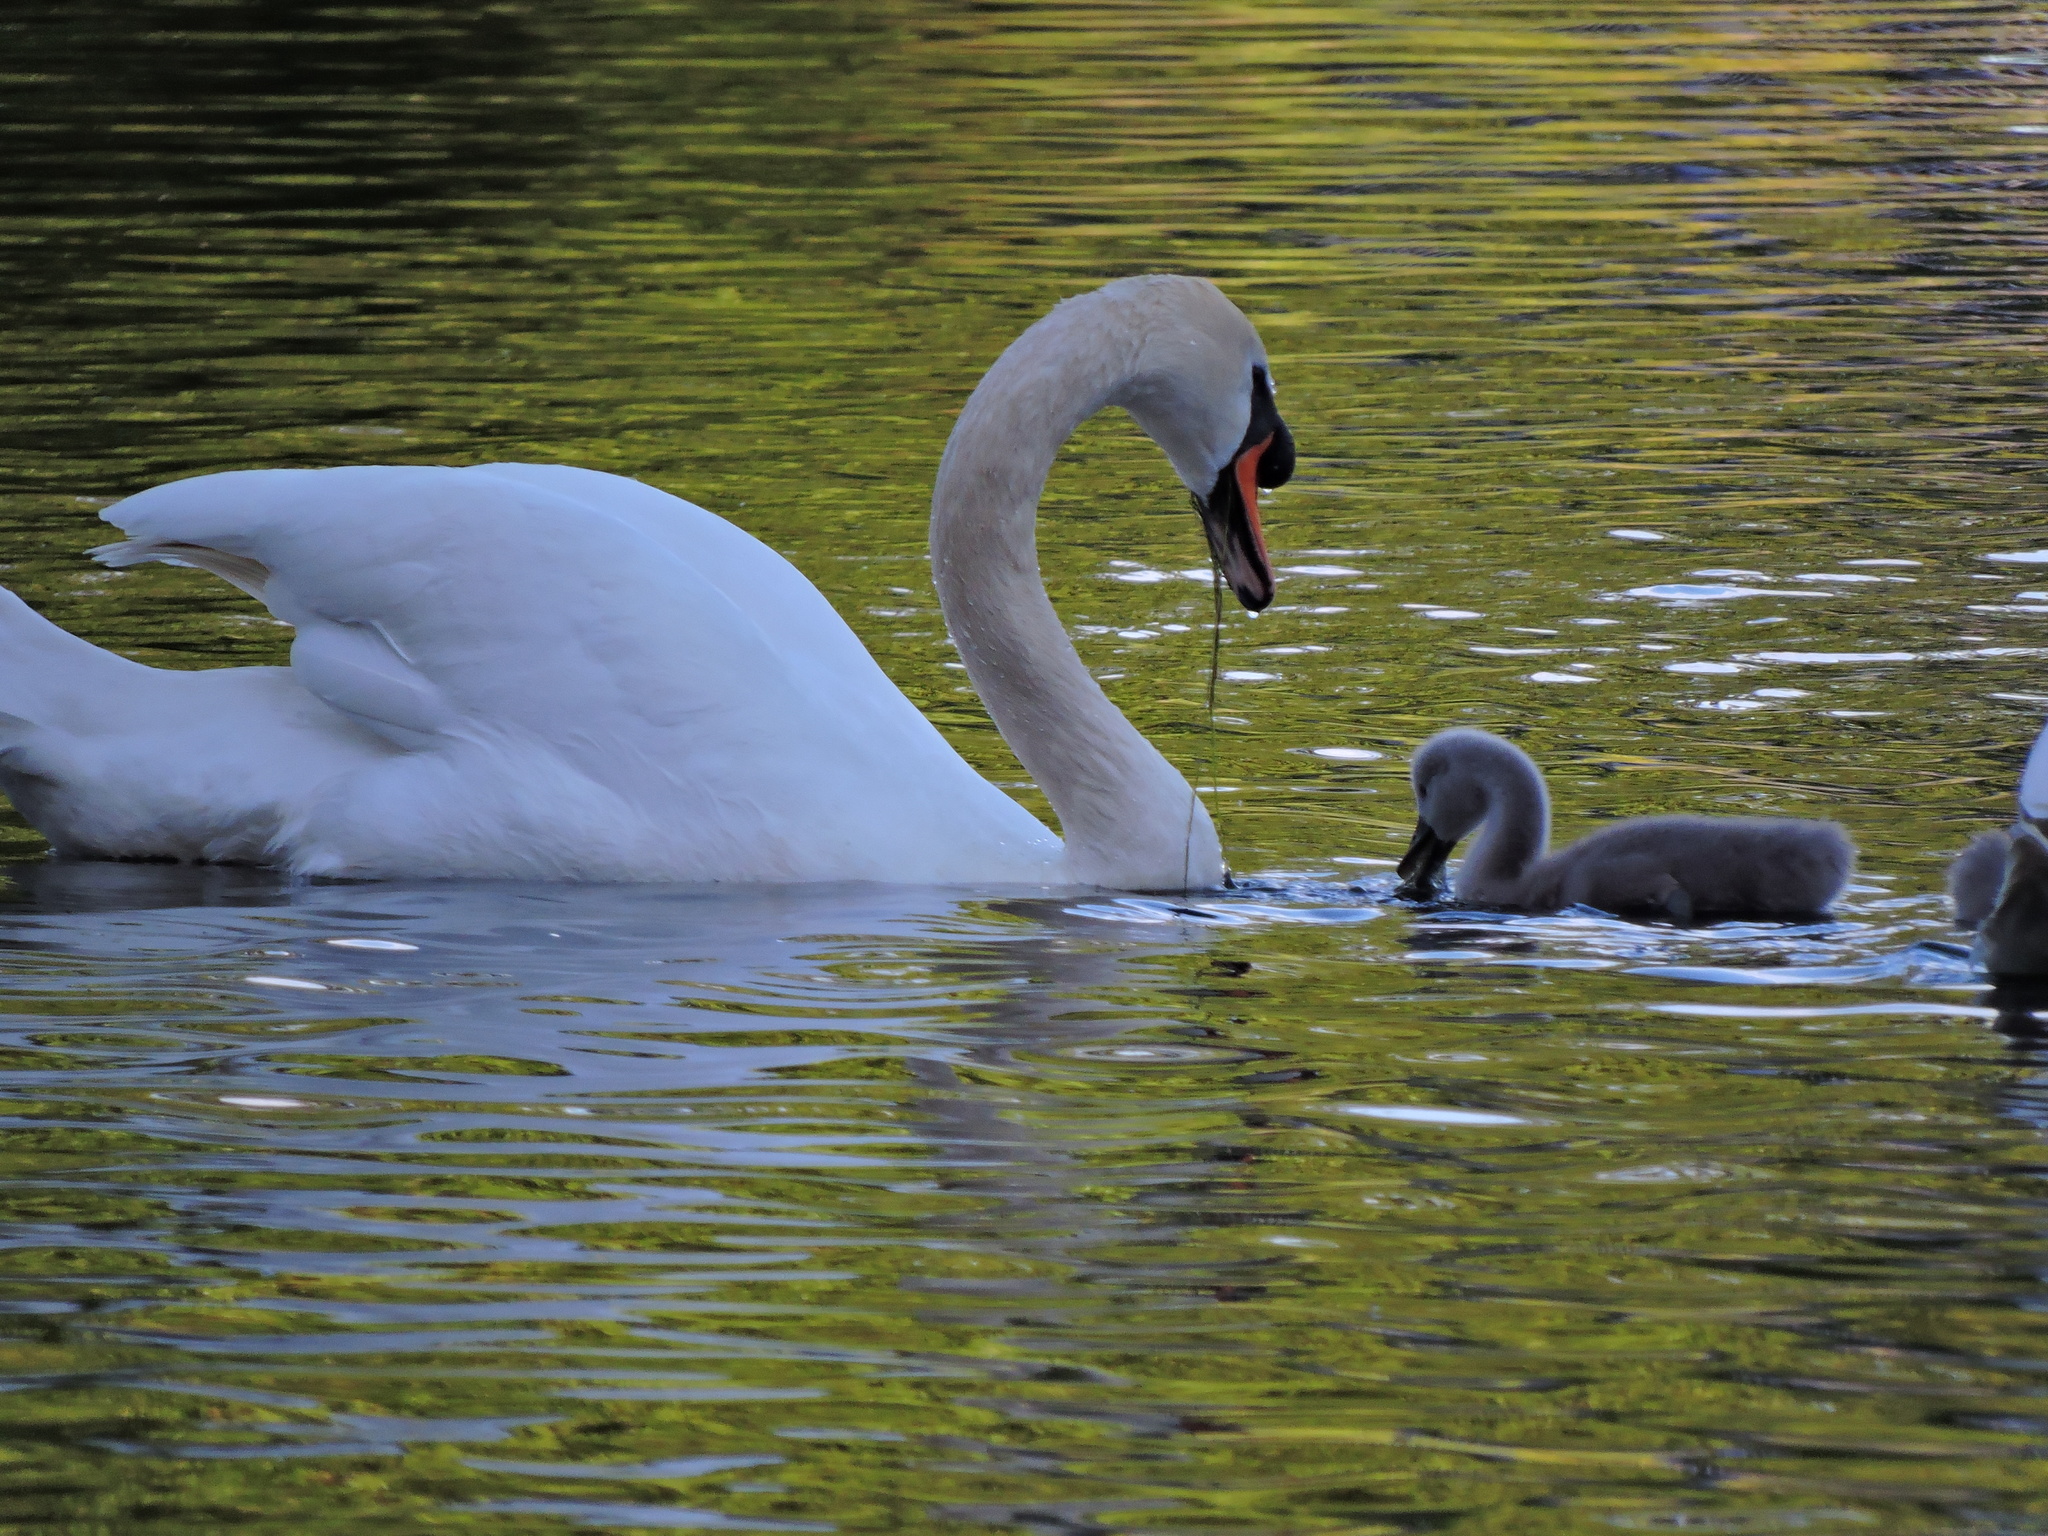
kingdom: Animalia
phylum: Chordata
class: Aves
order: Anseriformes
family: Anatidae
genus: Cygnus
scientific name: Cygnus olor
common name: Mute swan
